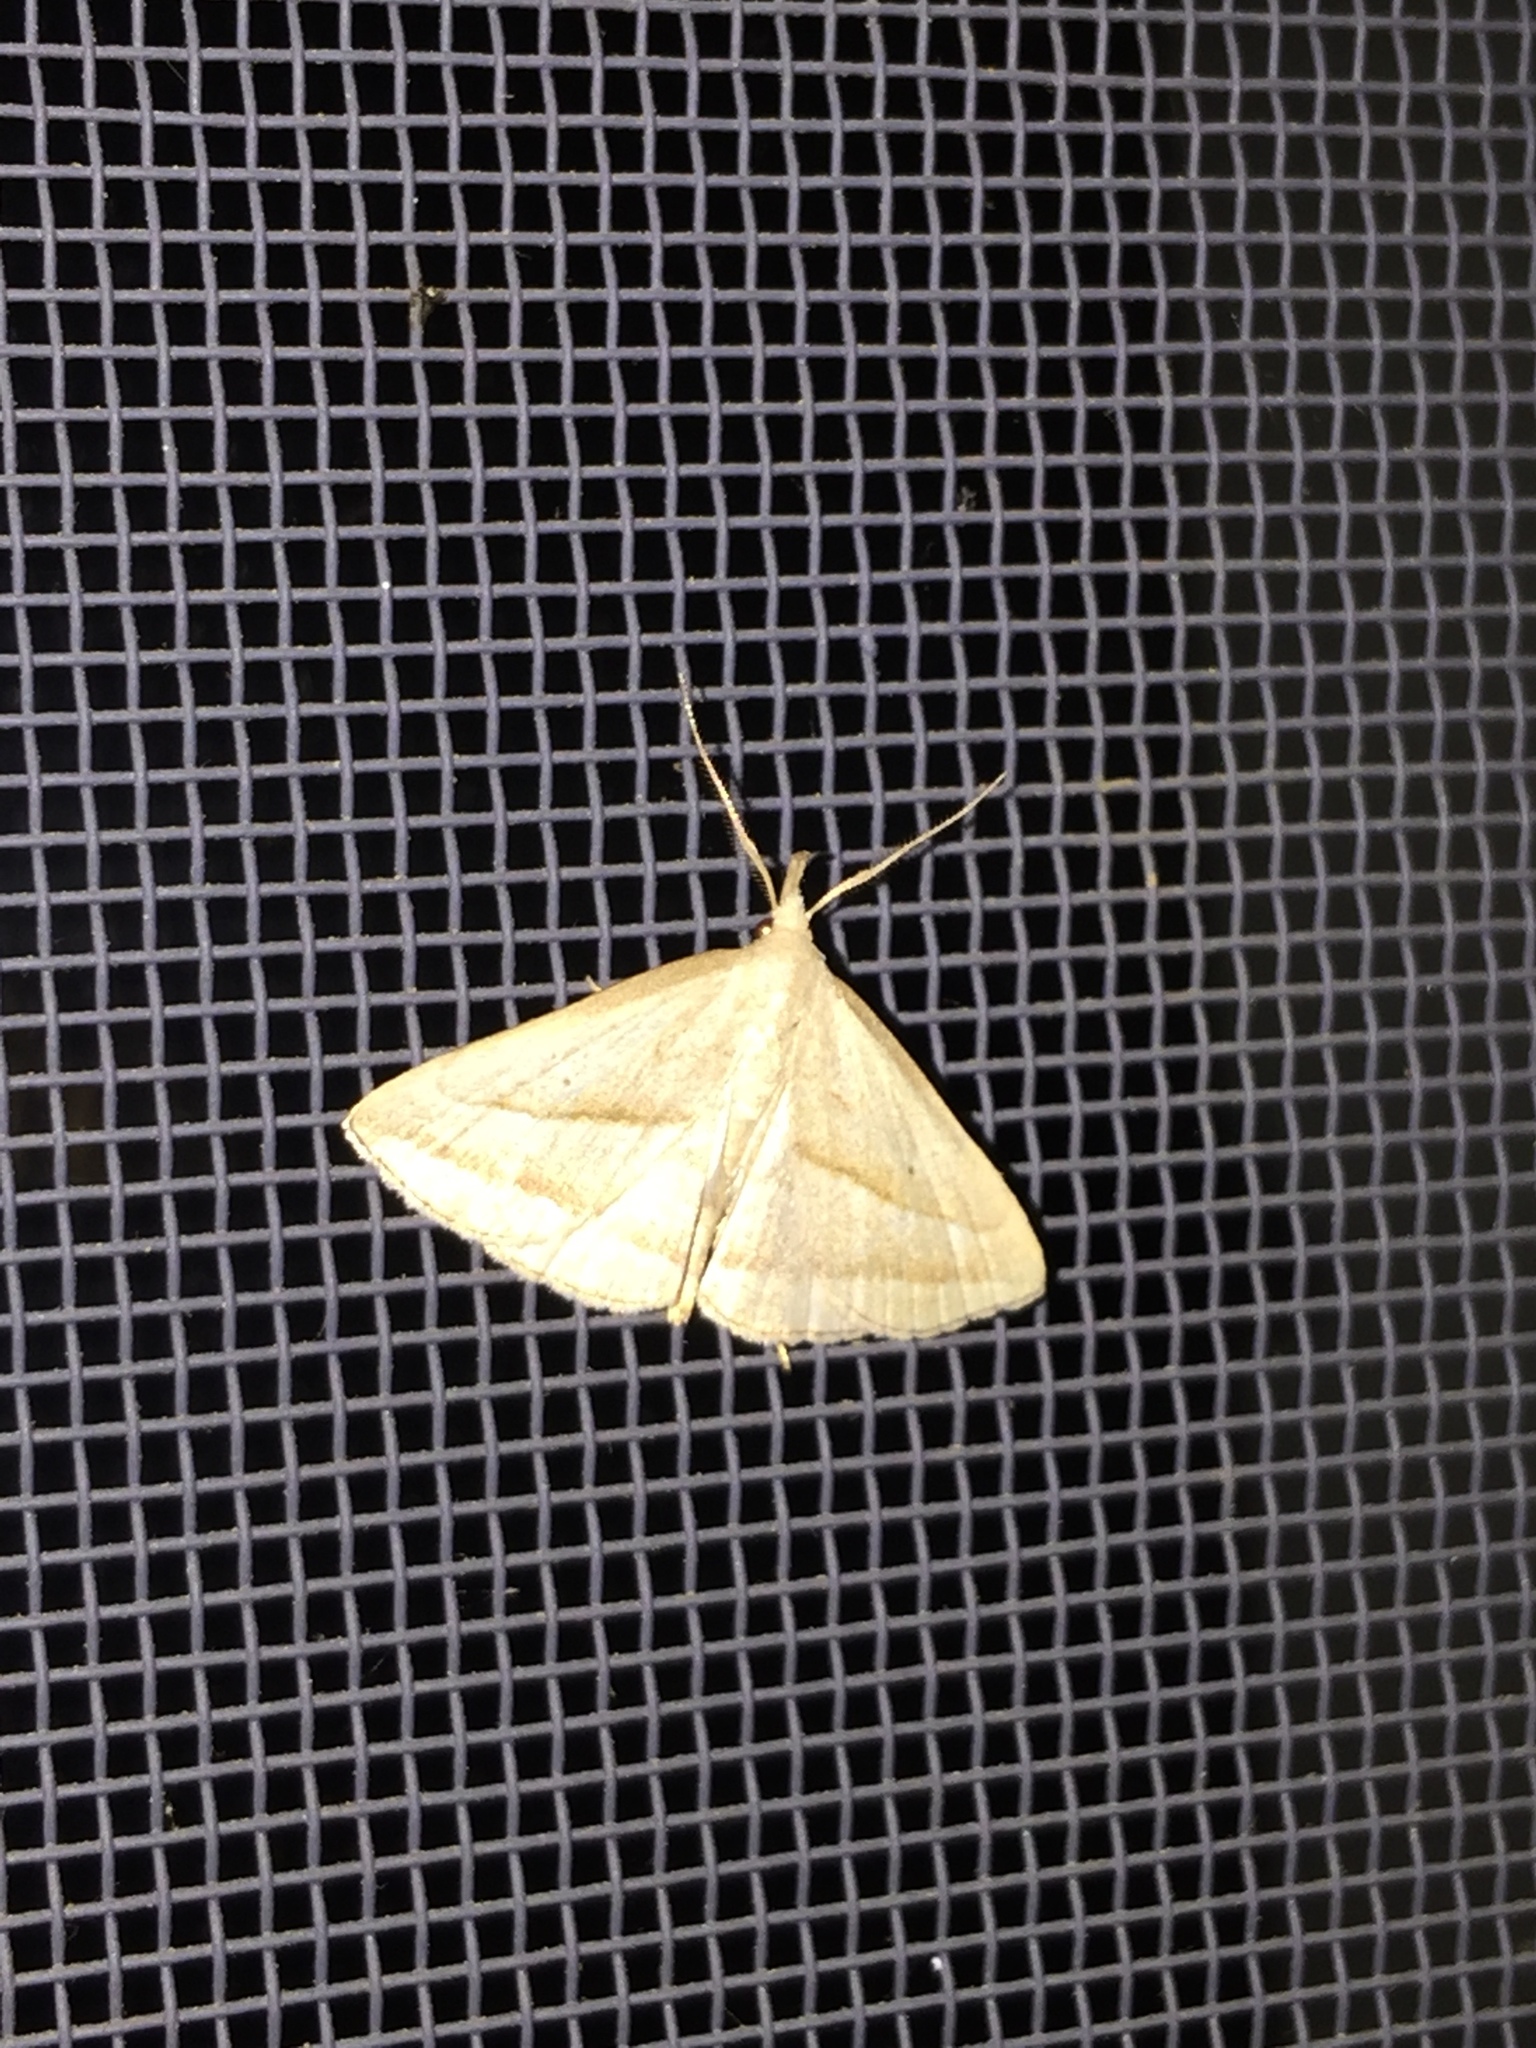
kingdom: Animalia
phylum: Arthropoda
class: Insecta
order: Lepidoptera
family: Erebidae
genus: Macrochilo
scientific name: Macrochilo absorptalis
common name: Slant-lined owlet
